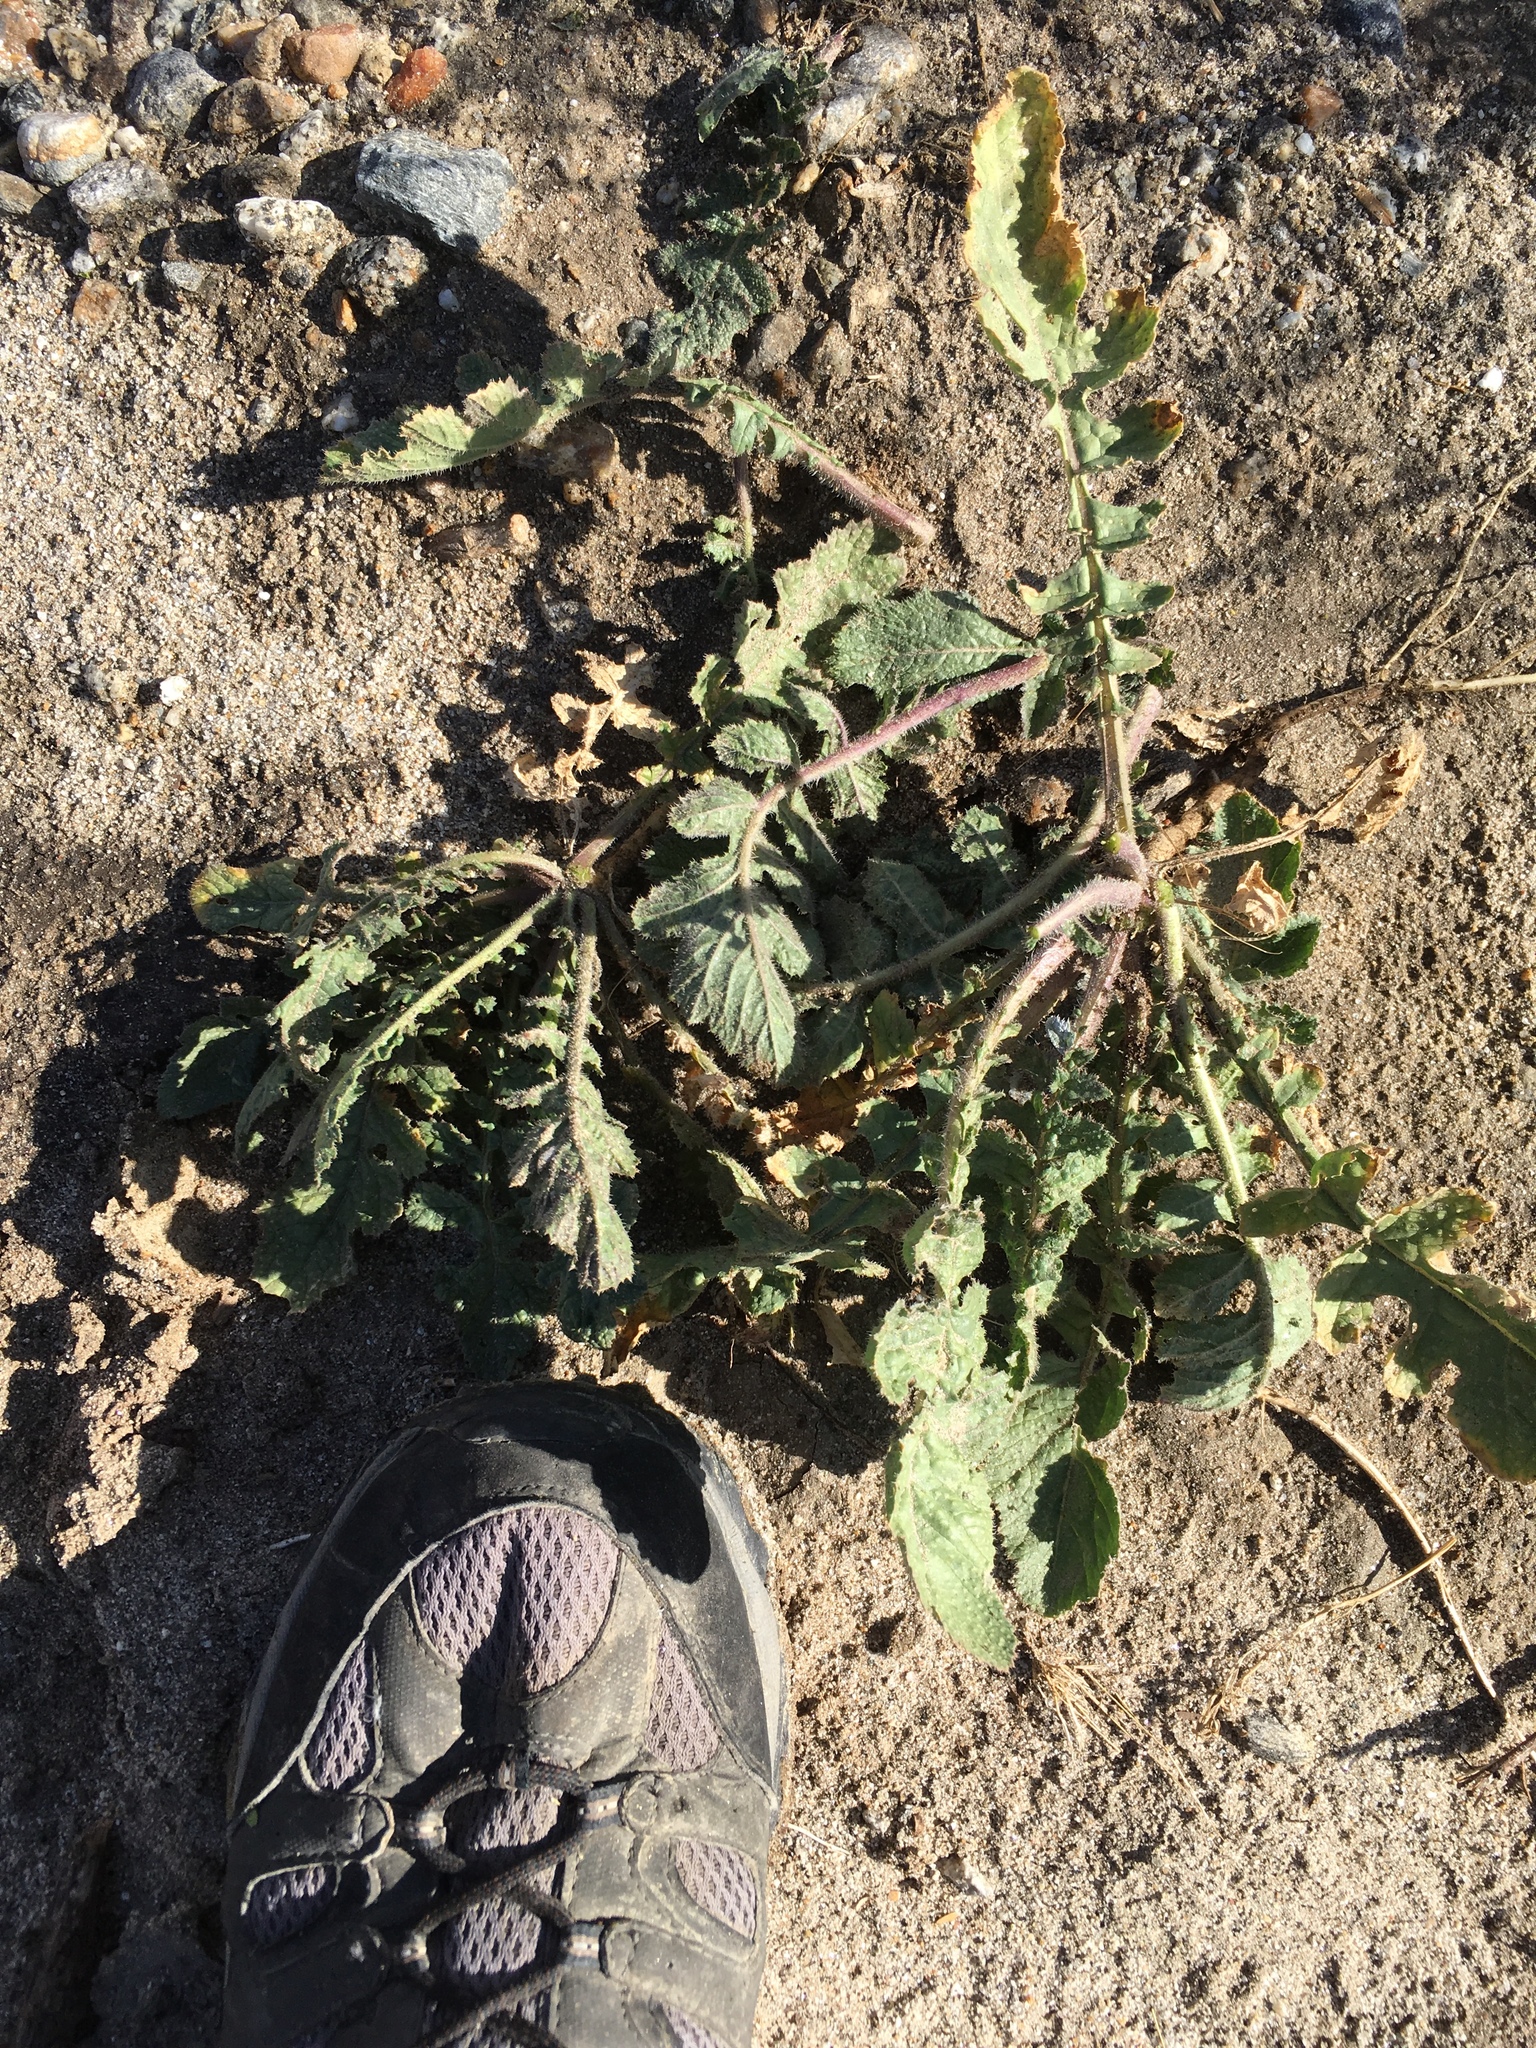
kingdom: Plantae
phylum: Tracheophyta
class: Magnoliopsida
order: Brassicales
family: Brassicaceae
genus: Brassica
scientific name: Brassica tournefortii
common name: Pale cabbage
